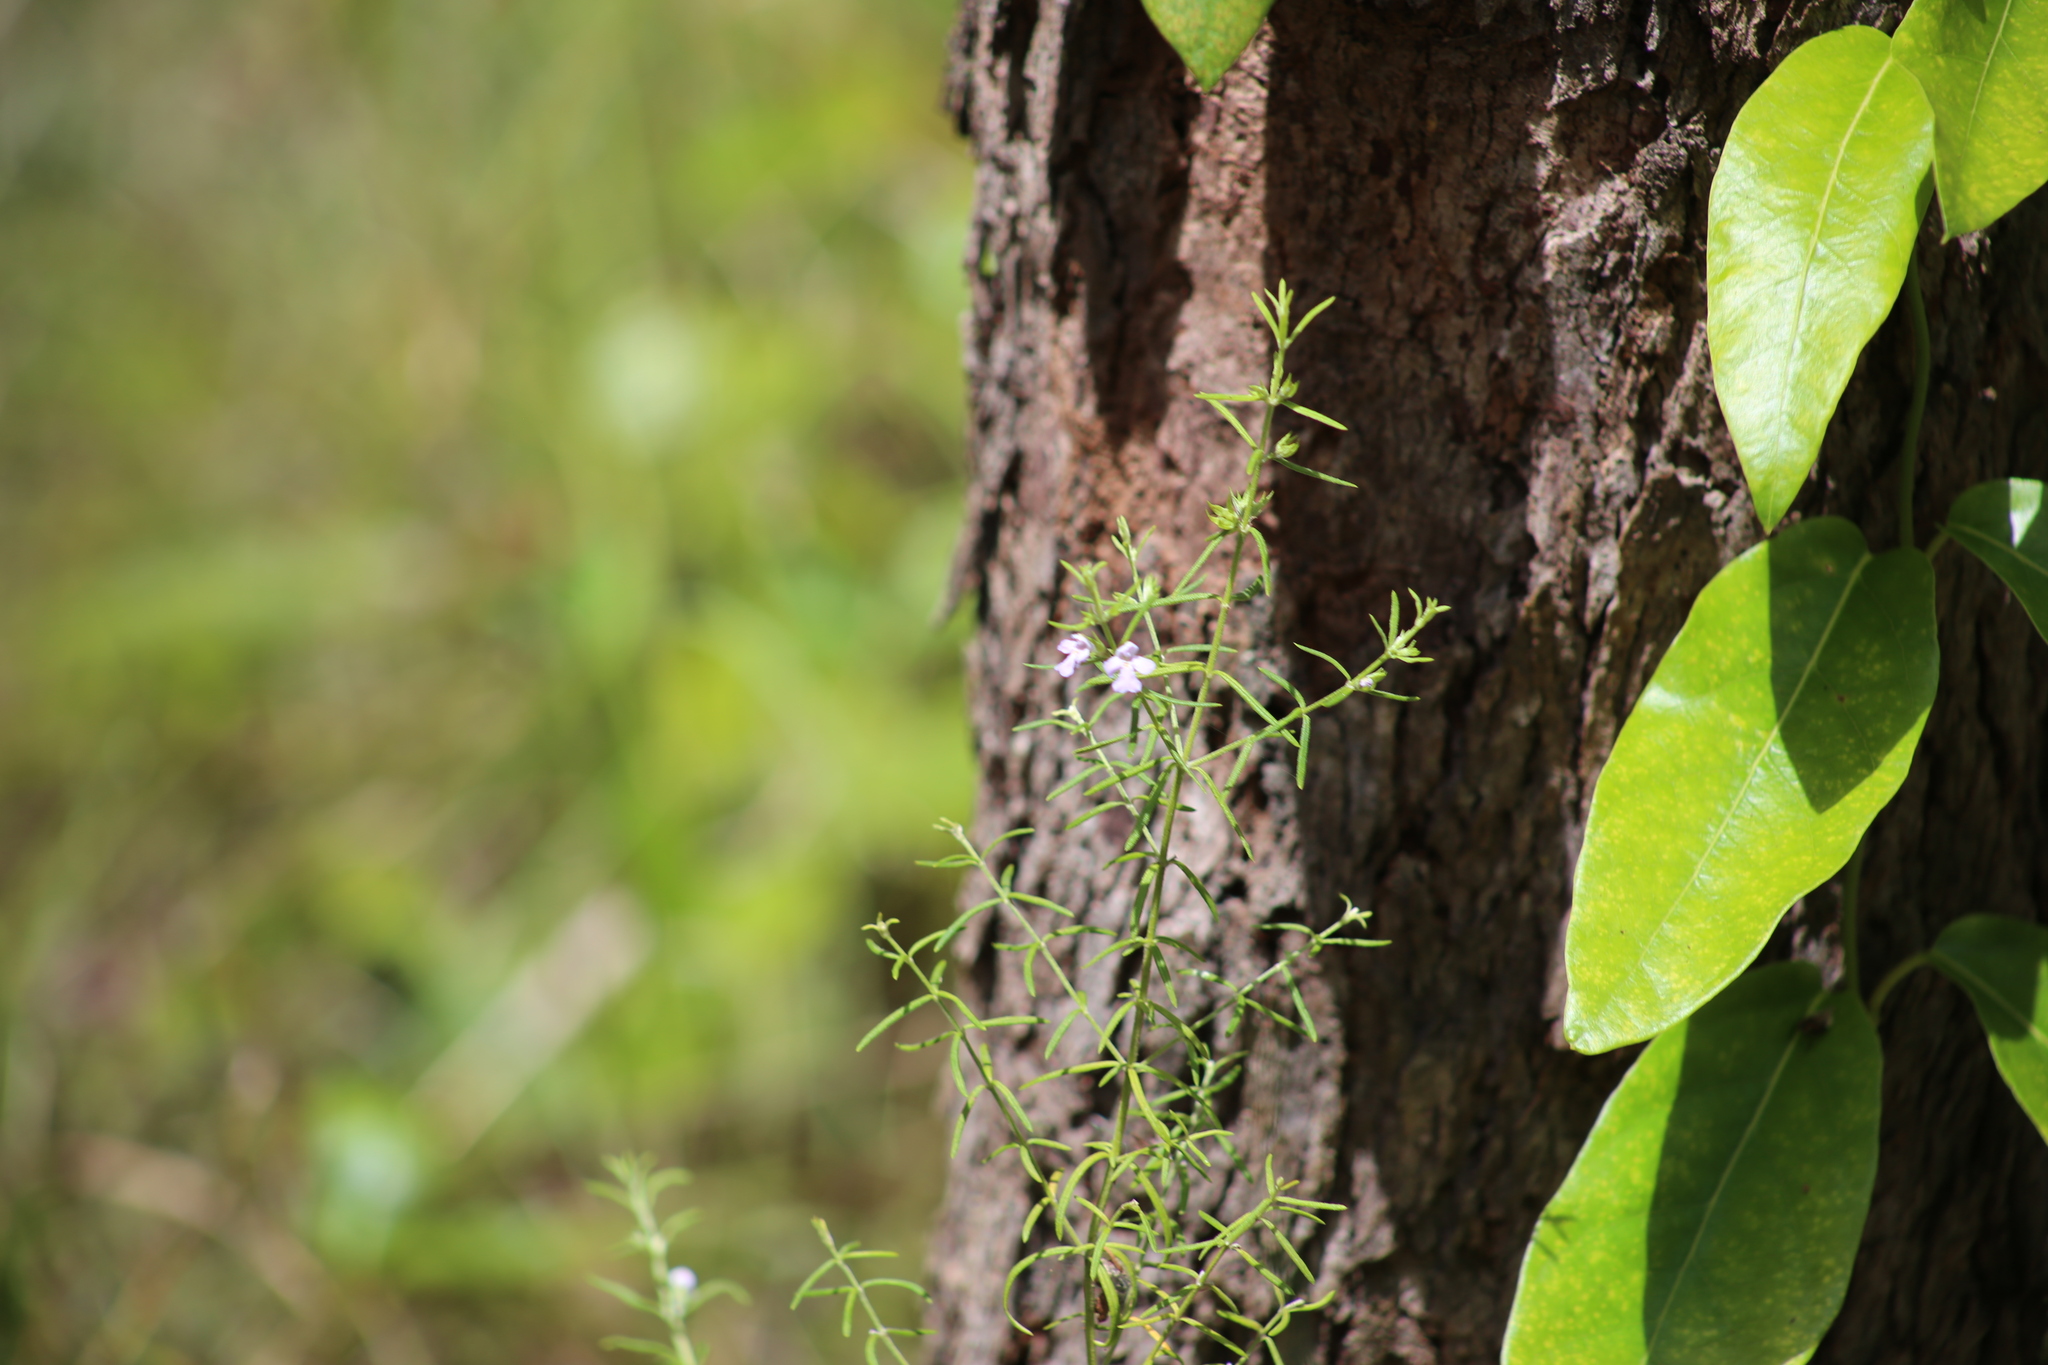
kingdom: Plantae
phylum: Tracheophyta
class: Magnoliopsida
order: Gentianales
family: Apocynaceae
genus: Parsonsia
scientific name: Parsonsia straminea
